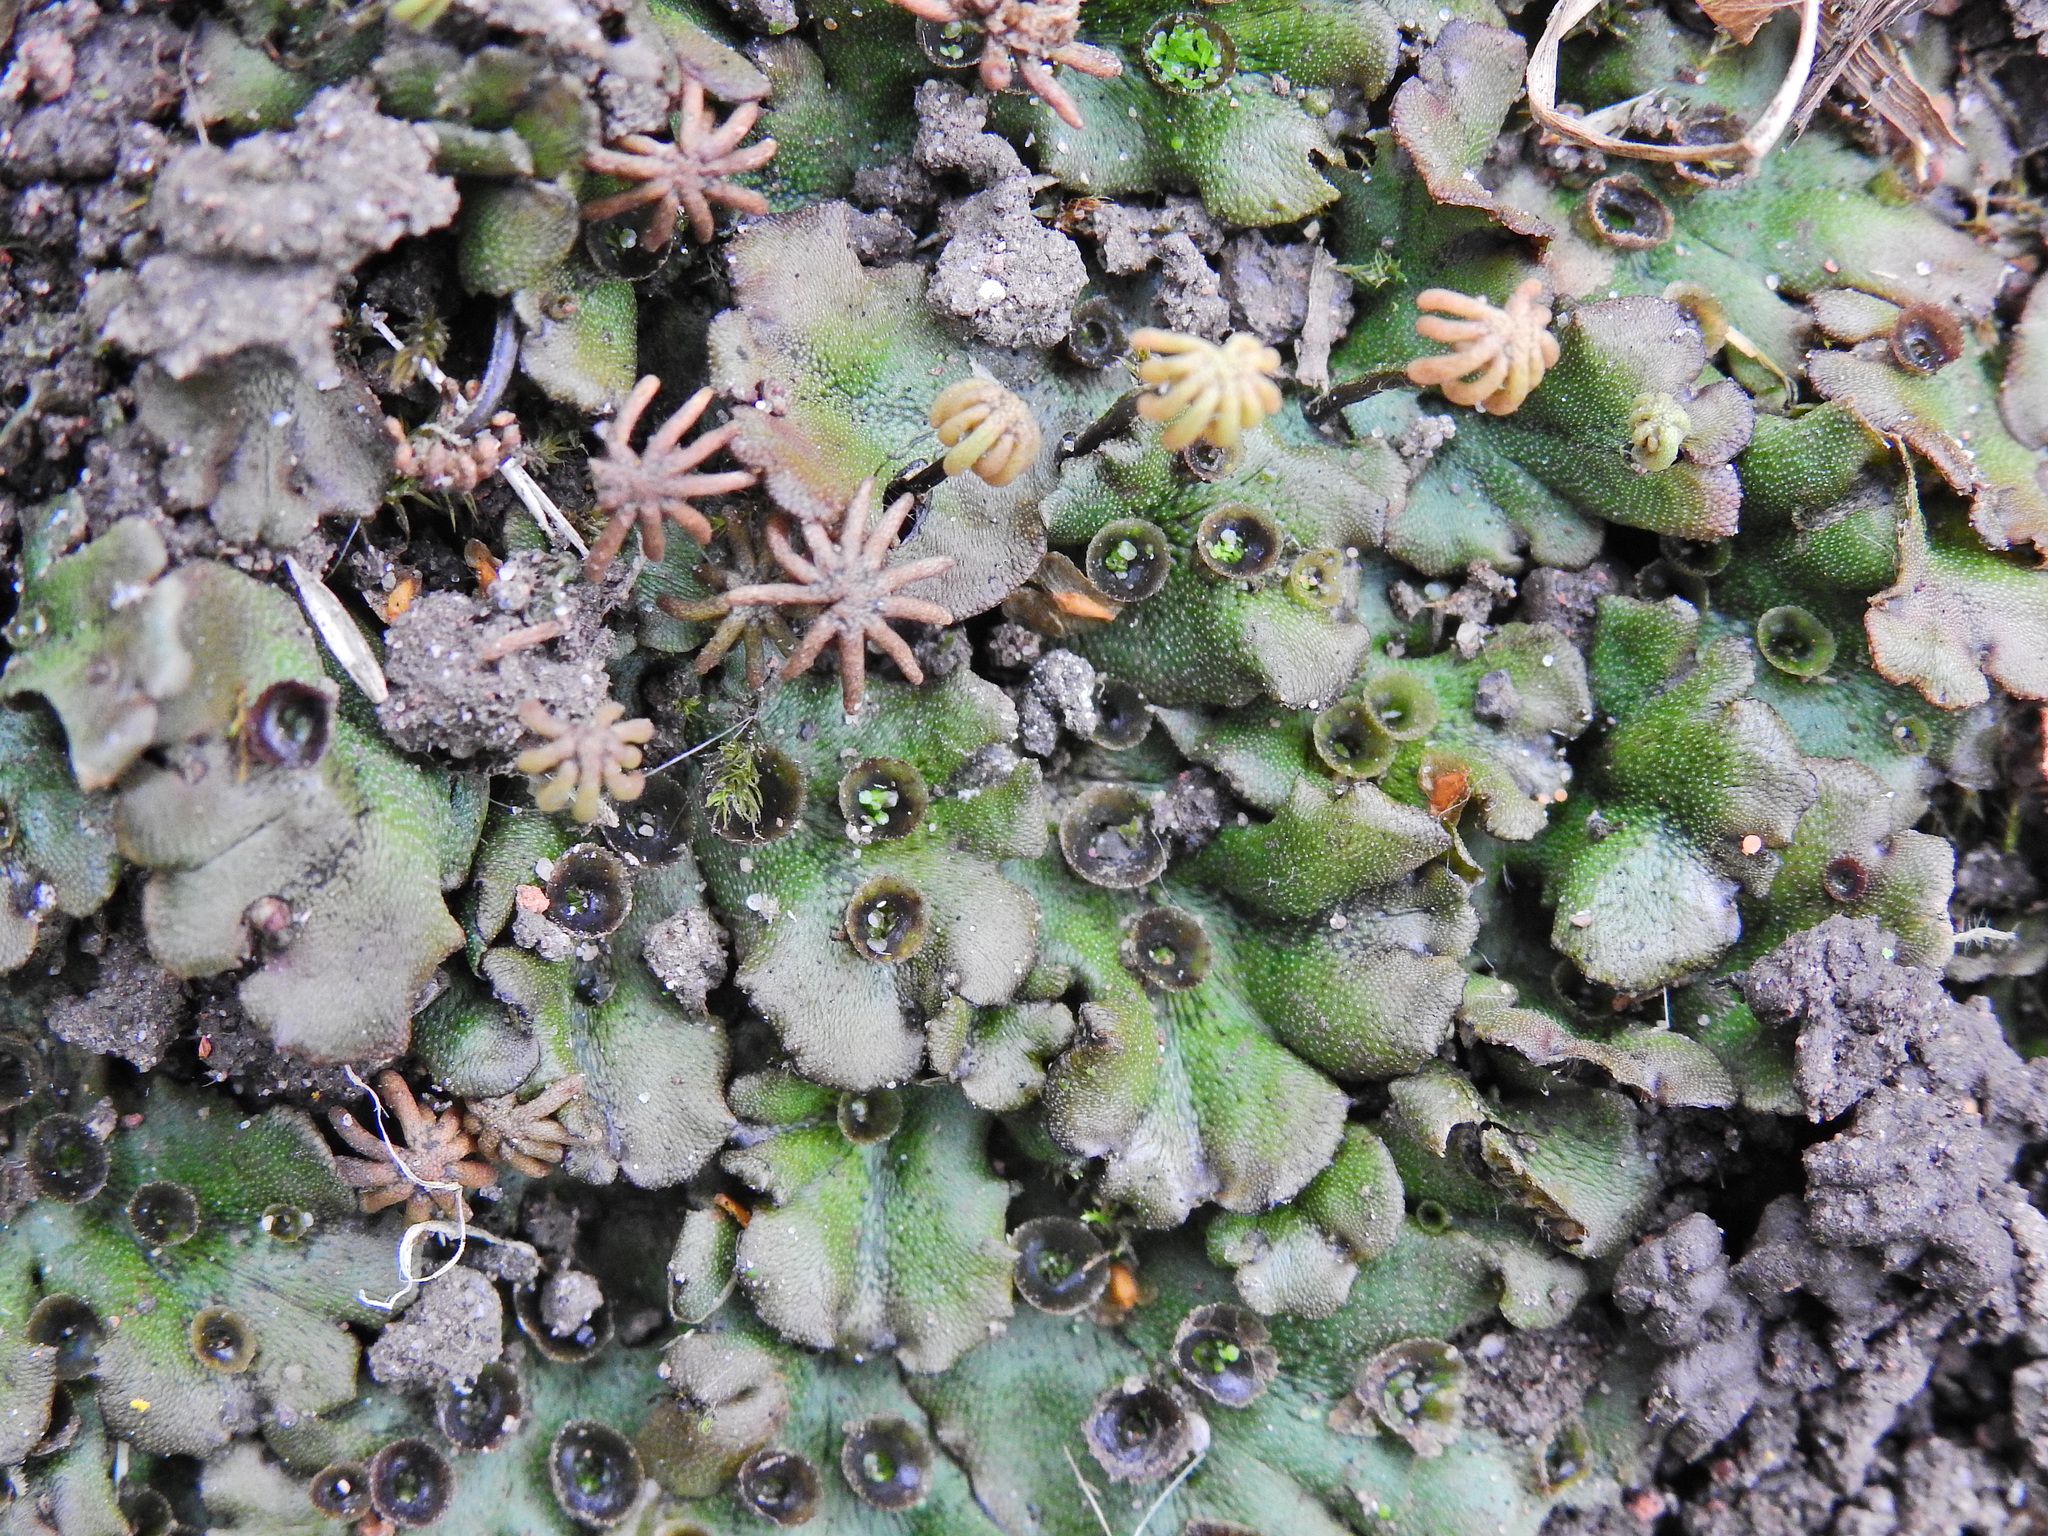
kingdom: Plantae
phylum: Marchantiophyta
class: Marchantiopsida
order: Marchantiales
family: Marchantiaceae
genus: Marchantia
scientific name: Marchantia polymorpha
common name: Common liverwort
